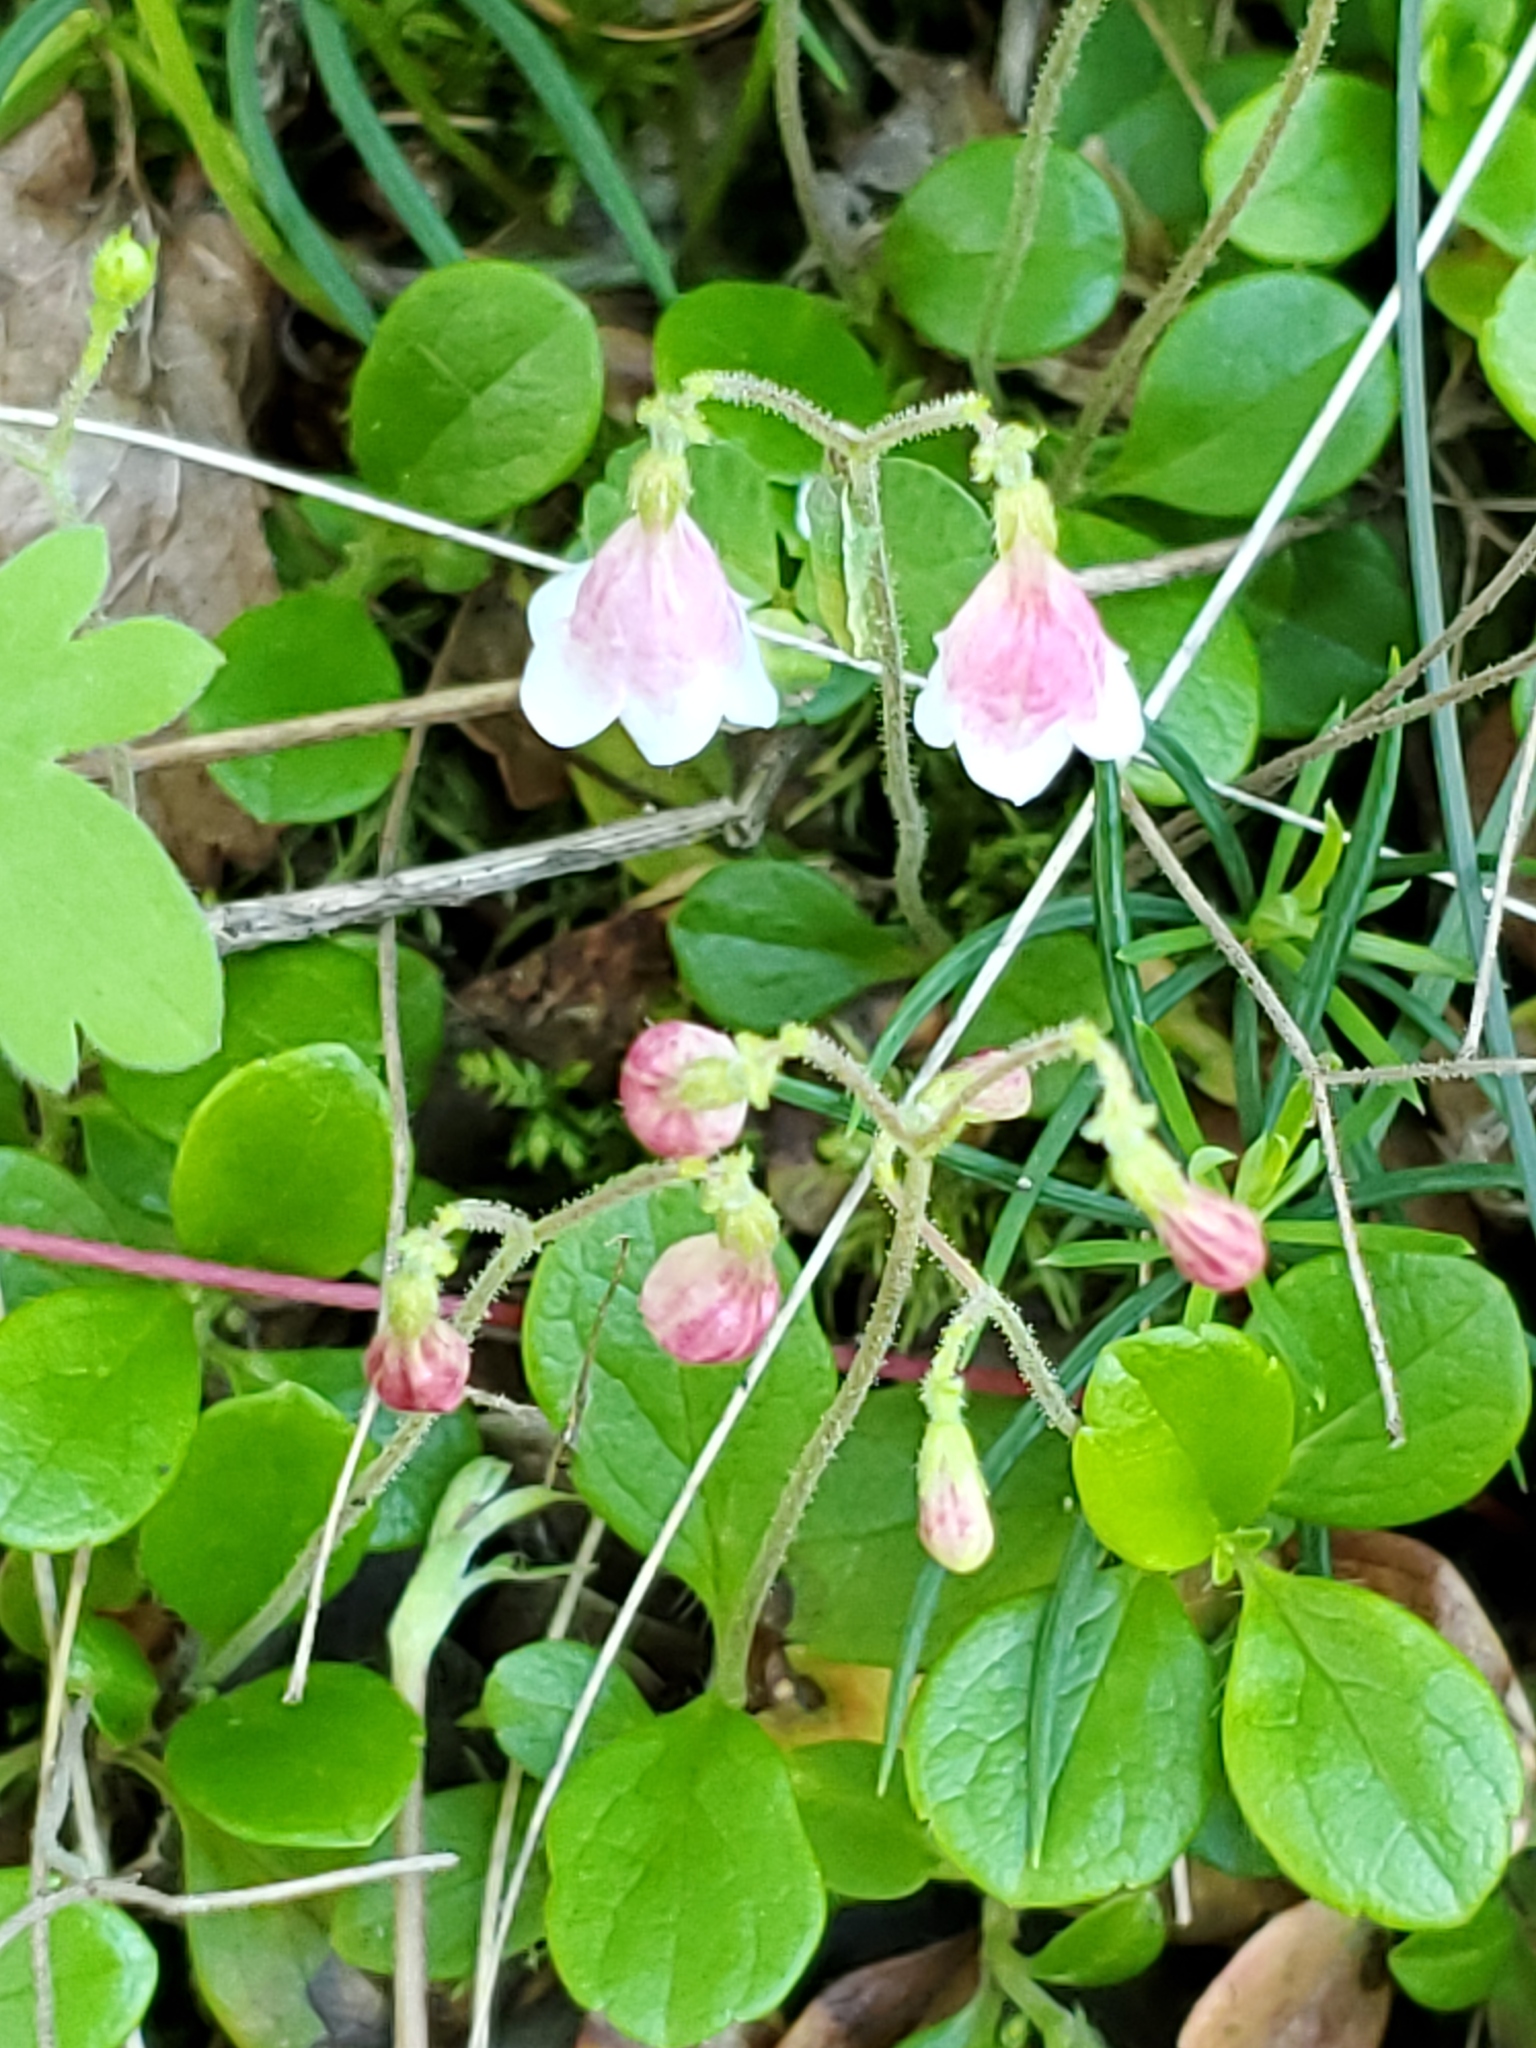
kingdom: Plantae
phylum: Tracheophyta
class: Magnoliopsida
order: Dipsacales
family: Caprifoliaceae
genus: Linnaea
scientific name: Linnaea borealis
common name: Twinflower
